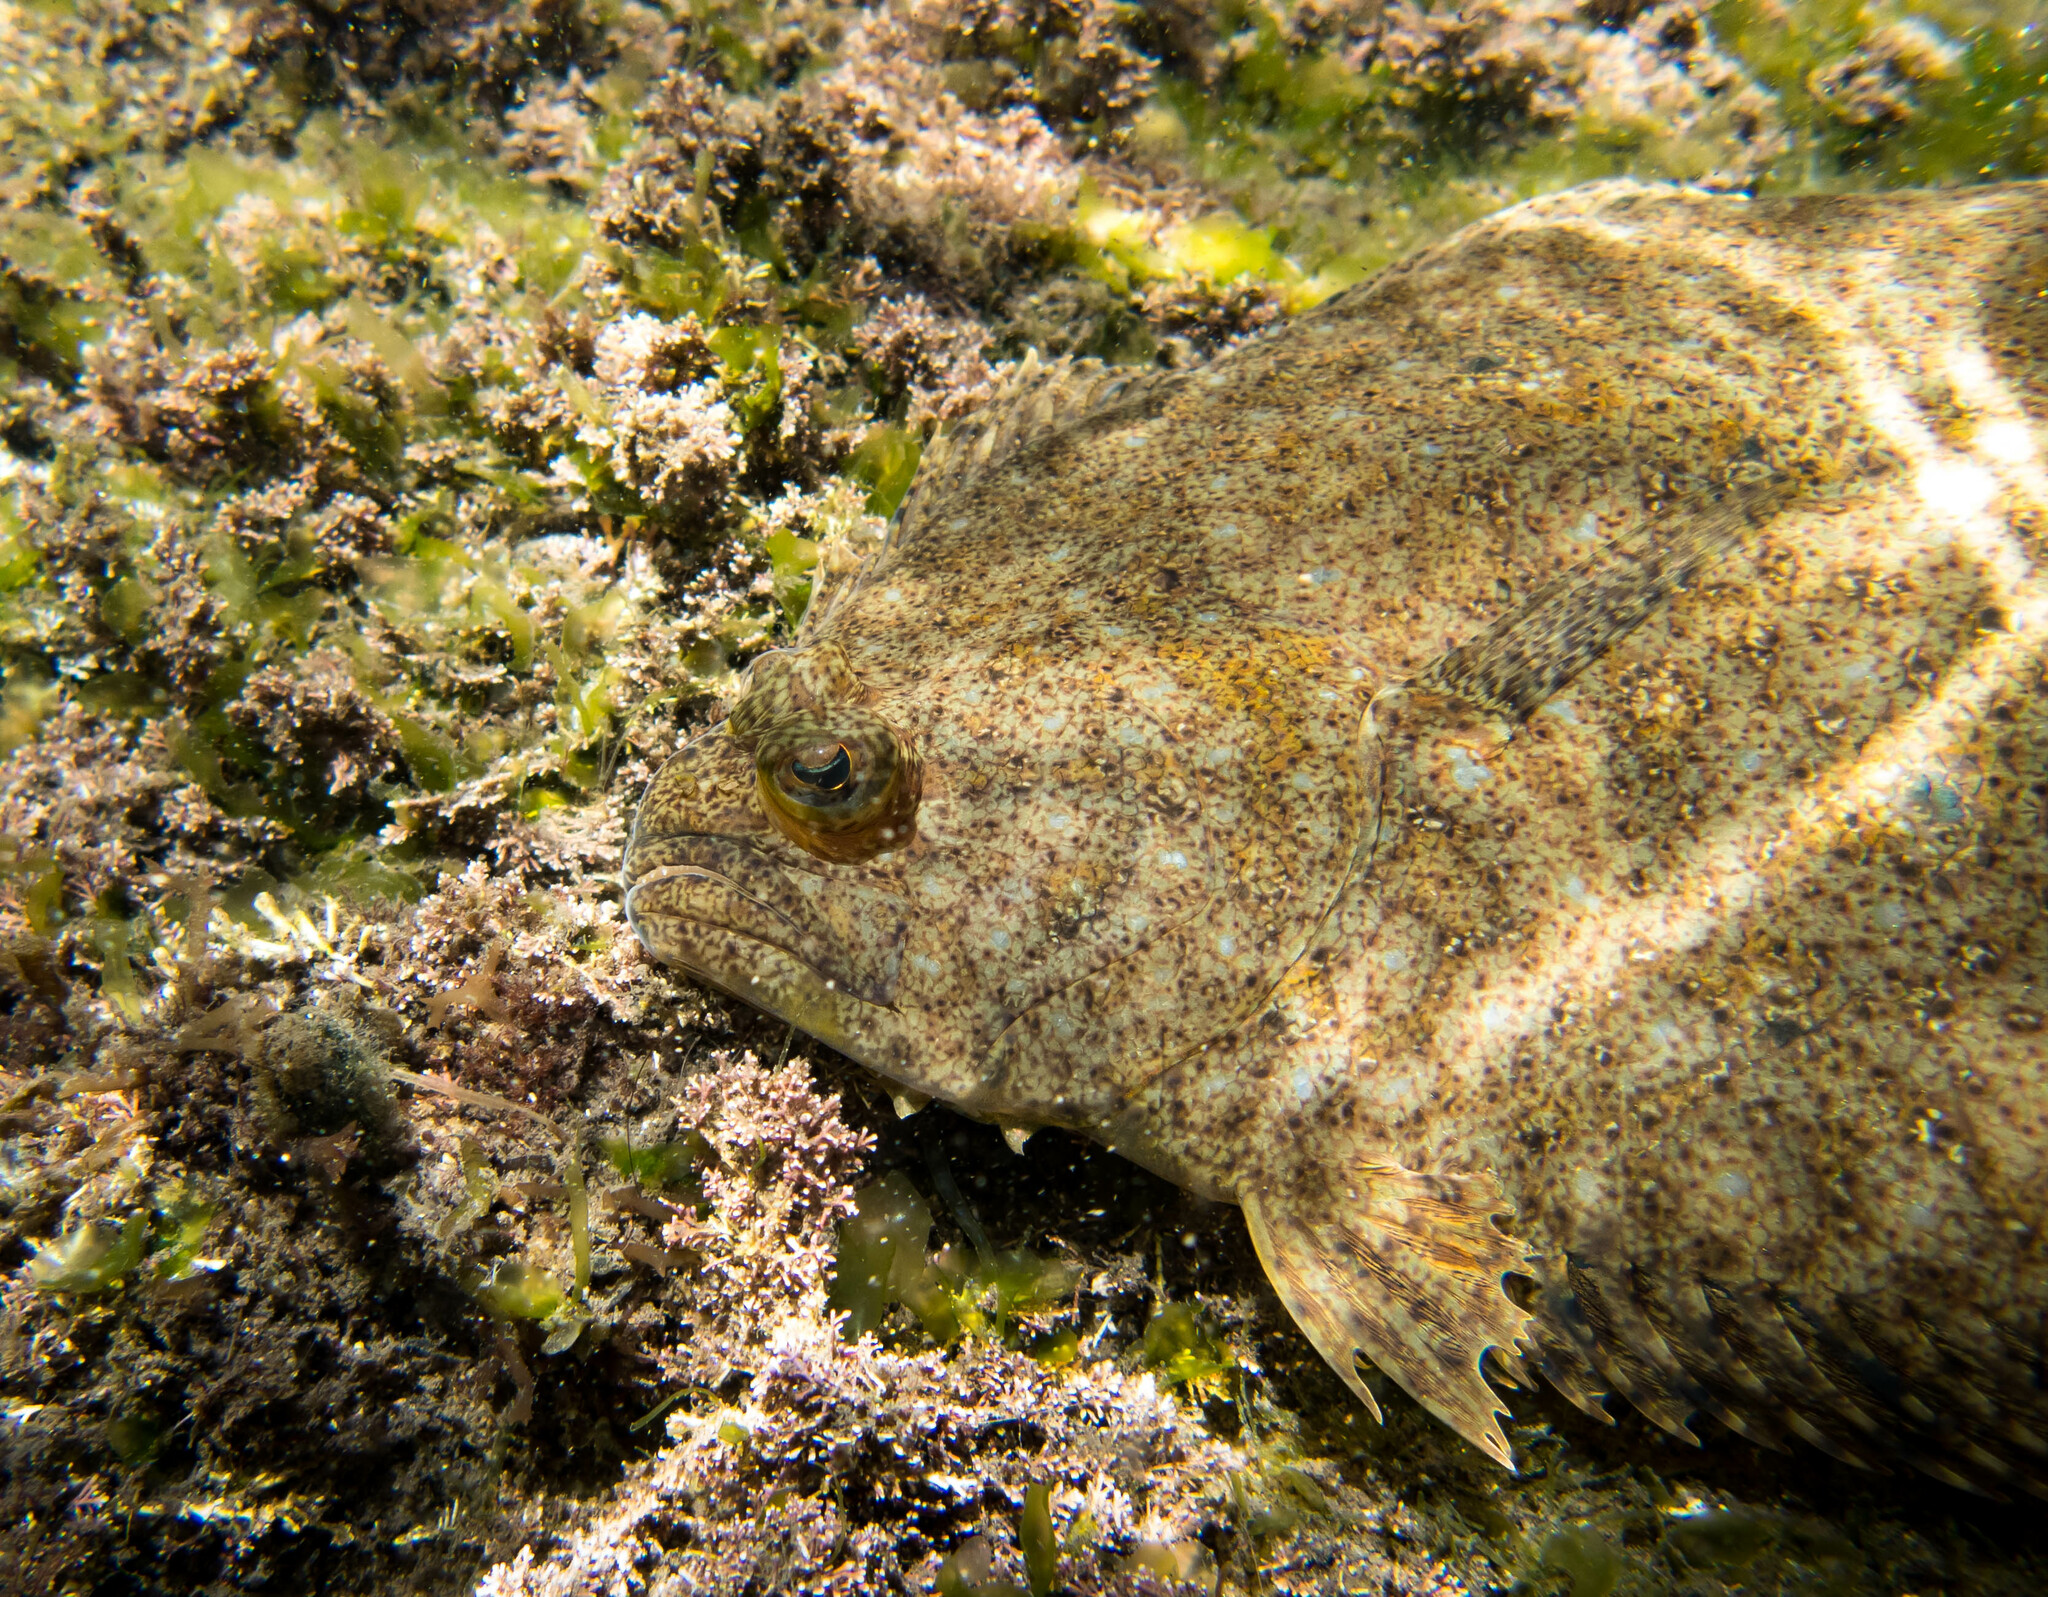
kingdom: Animalia
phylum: Chordata
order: Pleuronectiformes
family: Paralichthyidae
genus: Pseudorhombus
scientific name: Pseudorhombus jenynsii
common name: Smalltooth flounder
